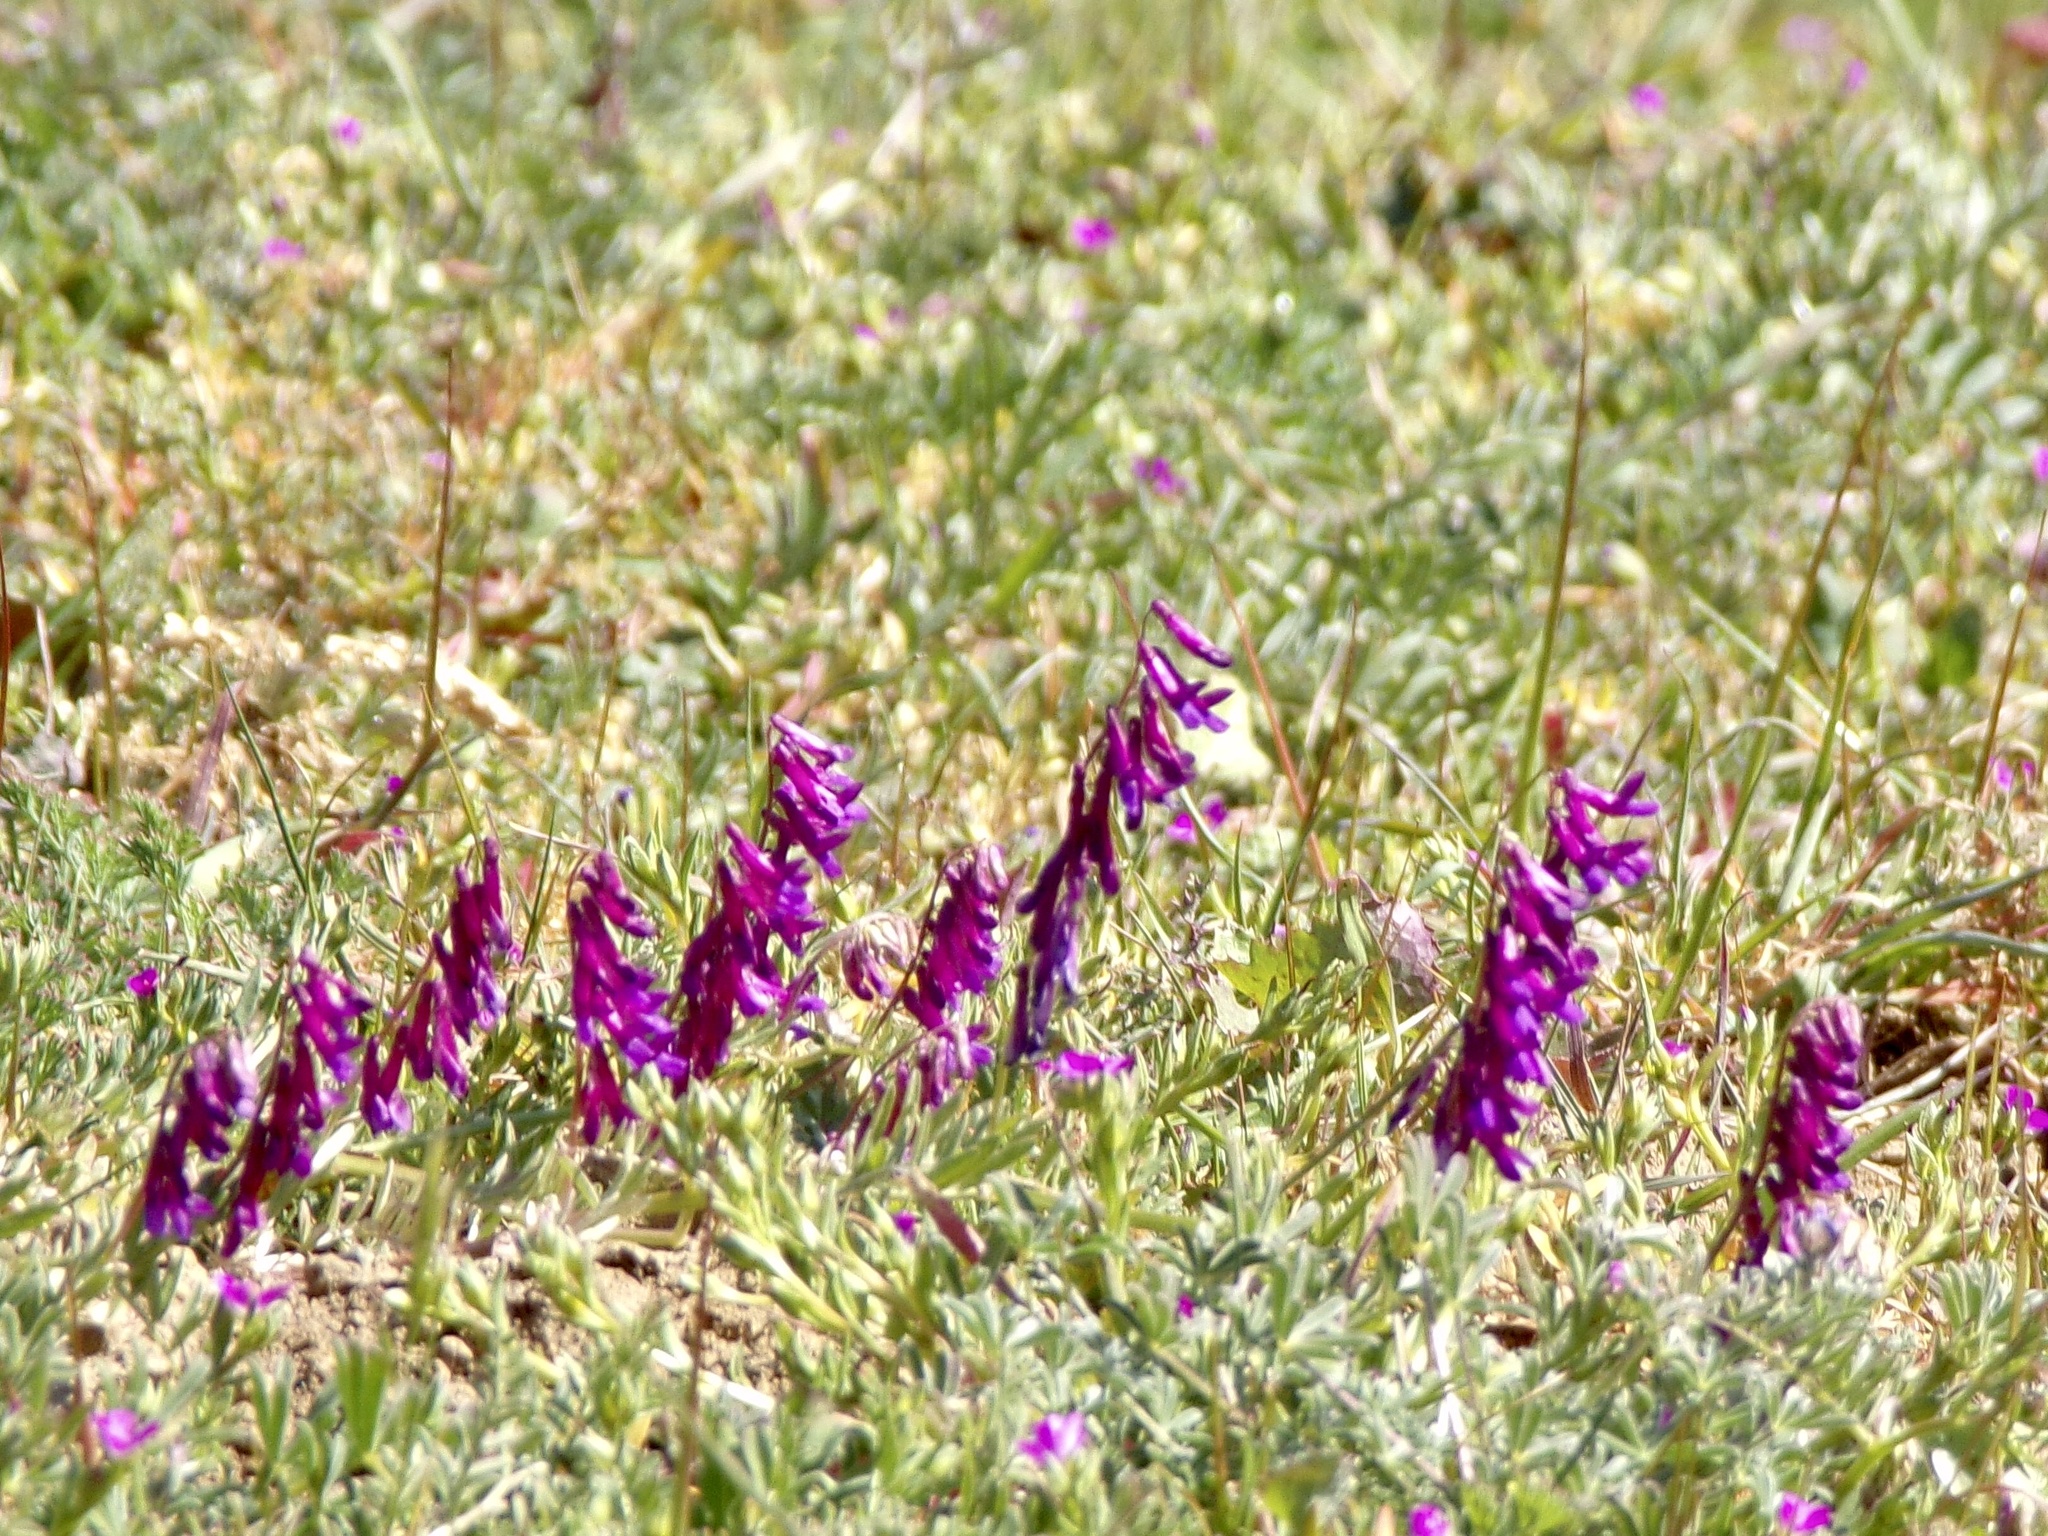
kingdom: Plantae
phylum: Tracheophyta
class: Magnoliopsida
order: Fabales
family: Fabaceae
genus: Vicia
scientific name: Vicia villosa
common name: Fodder vetch
